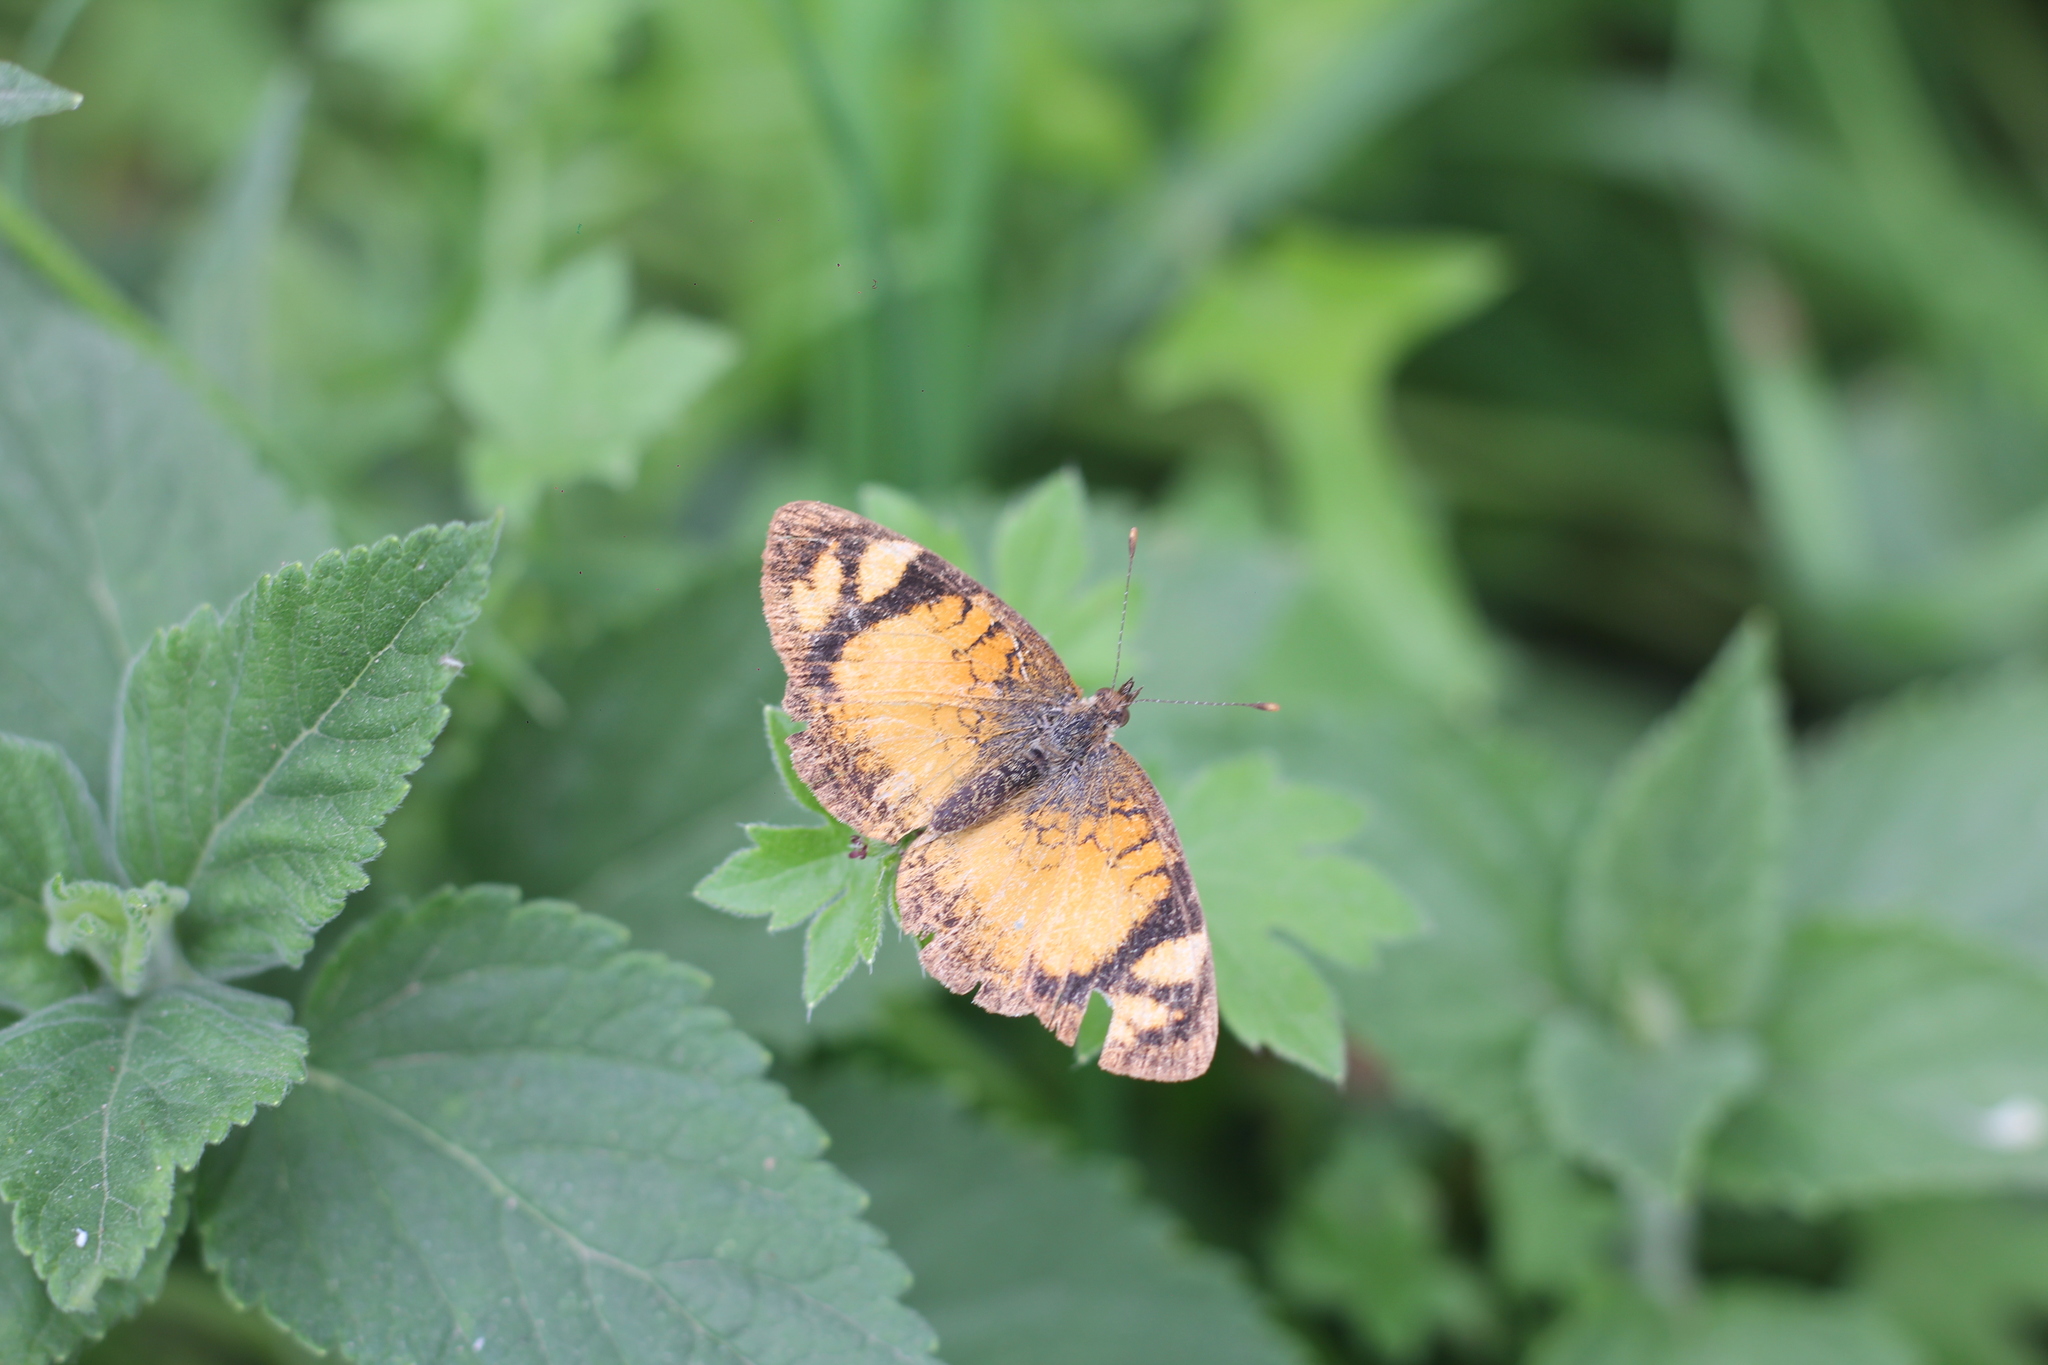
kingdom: Animalia
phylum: Arthropoda
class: Insecta
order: Lepidoptera
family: Nymphalidae
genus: Tegosa
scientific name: Tegosa claudina
